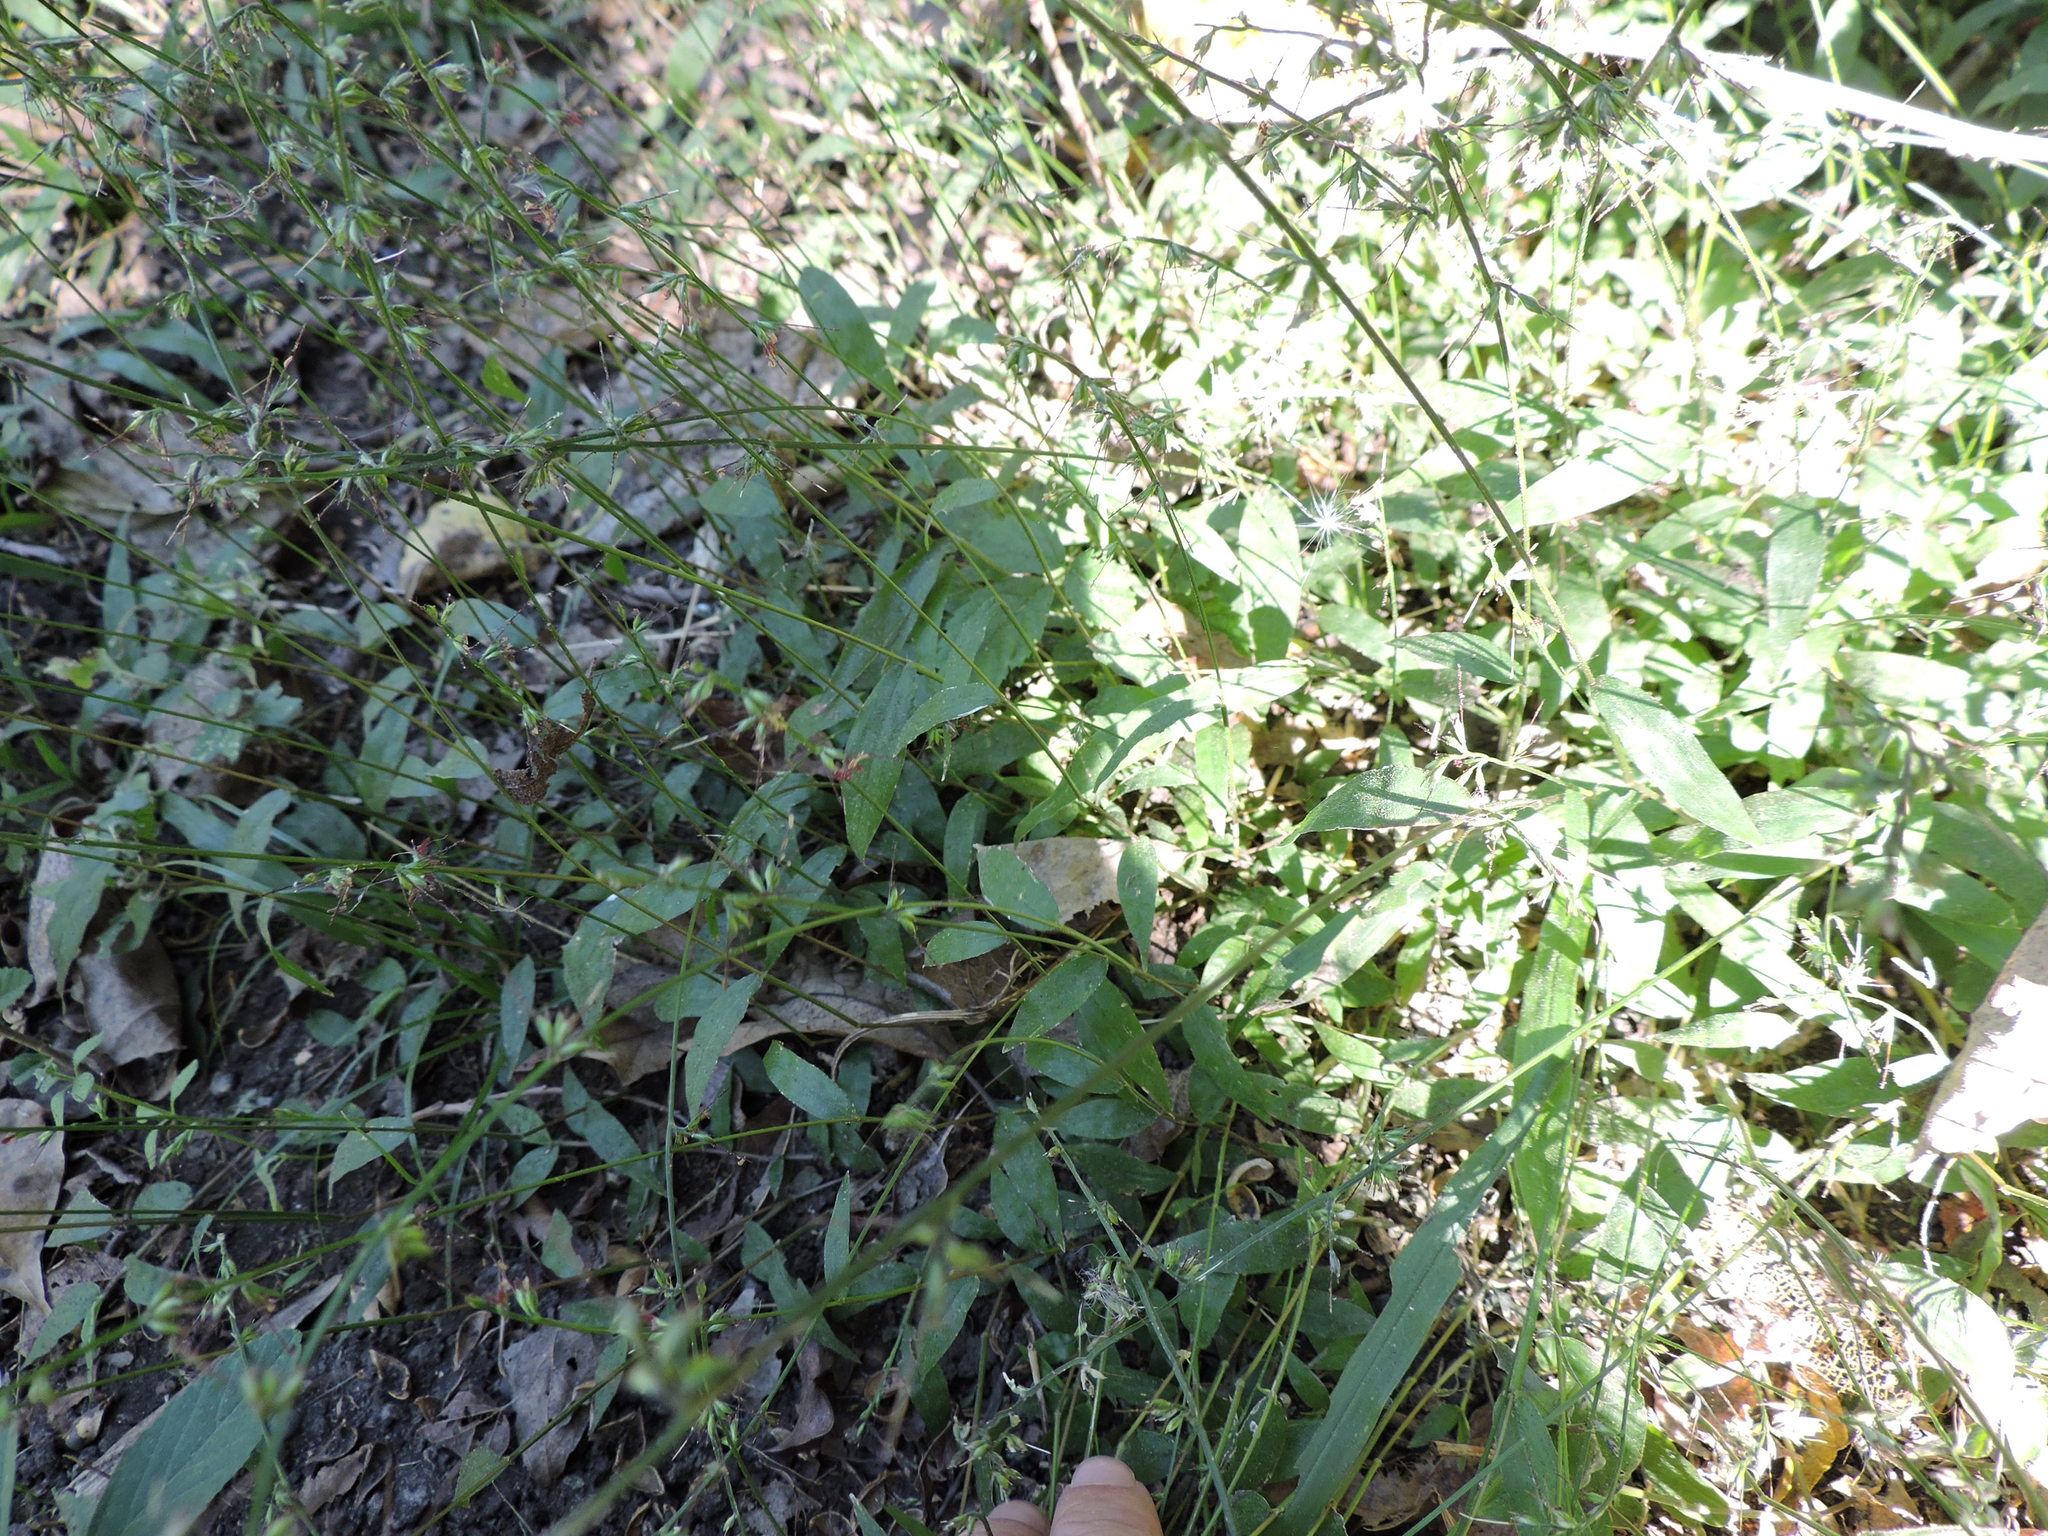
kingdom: Plantae
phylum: Tracheophyta
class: Liliopsida
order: Poales
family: Poaceae
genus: Oplismenus
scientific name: Oplismenus hirtellus
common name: Basketgrass
